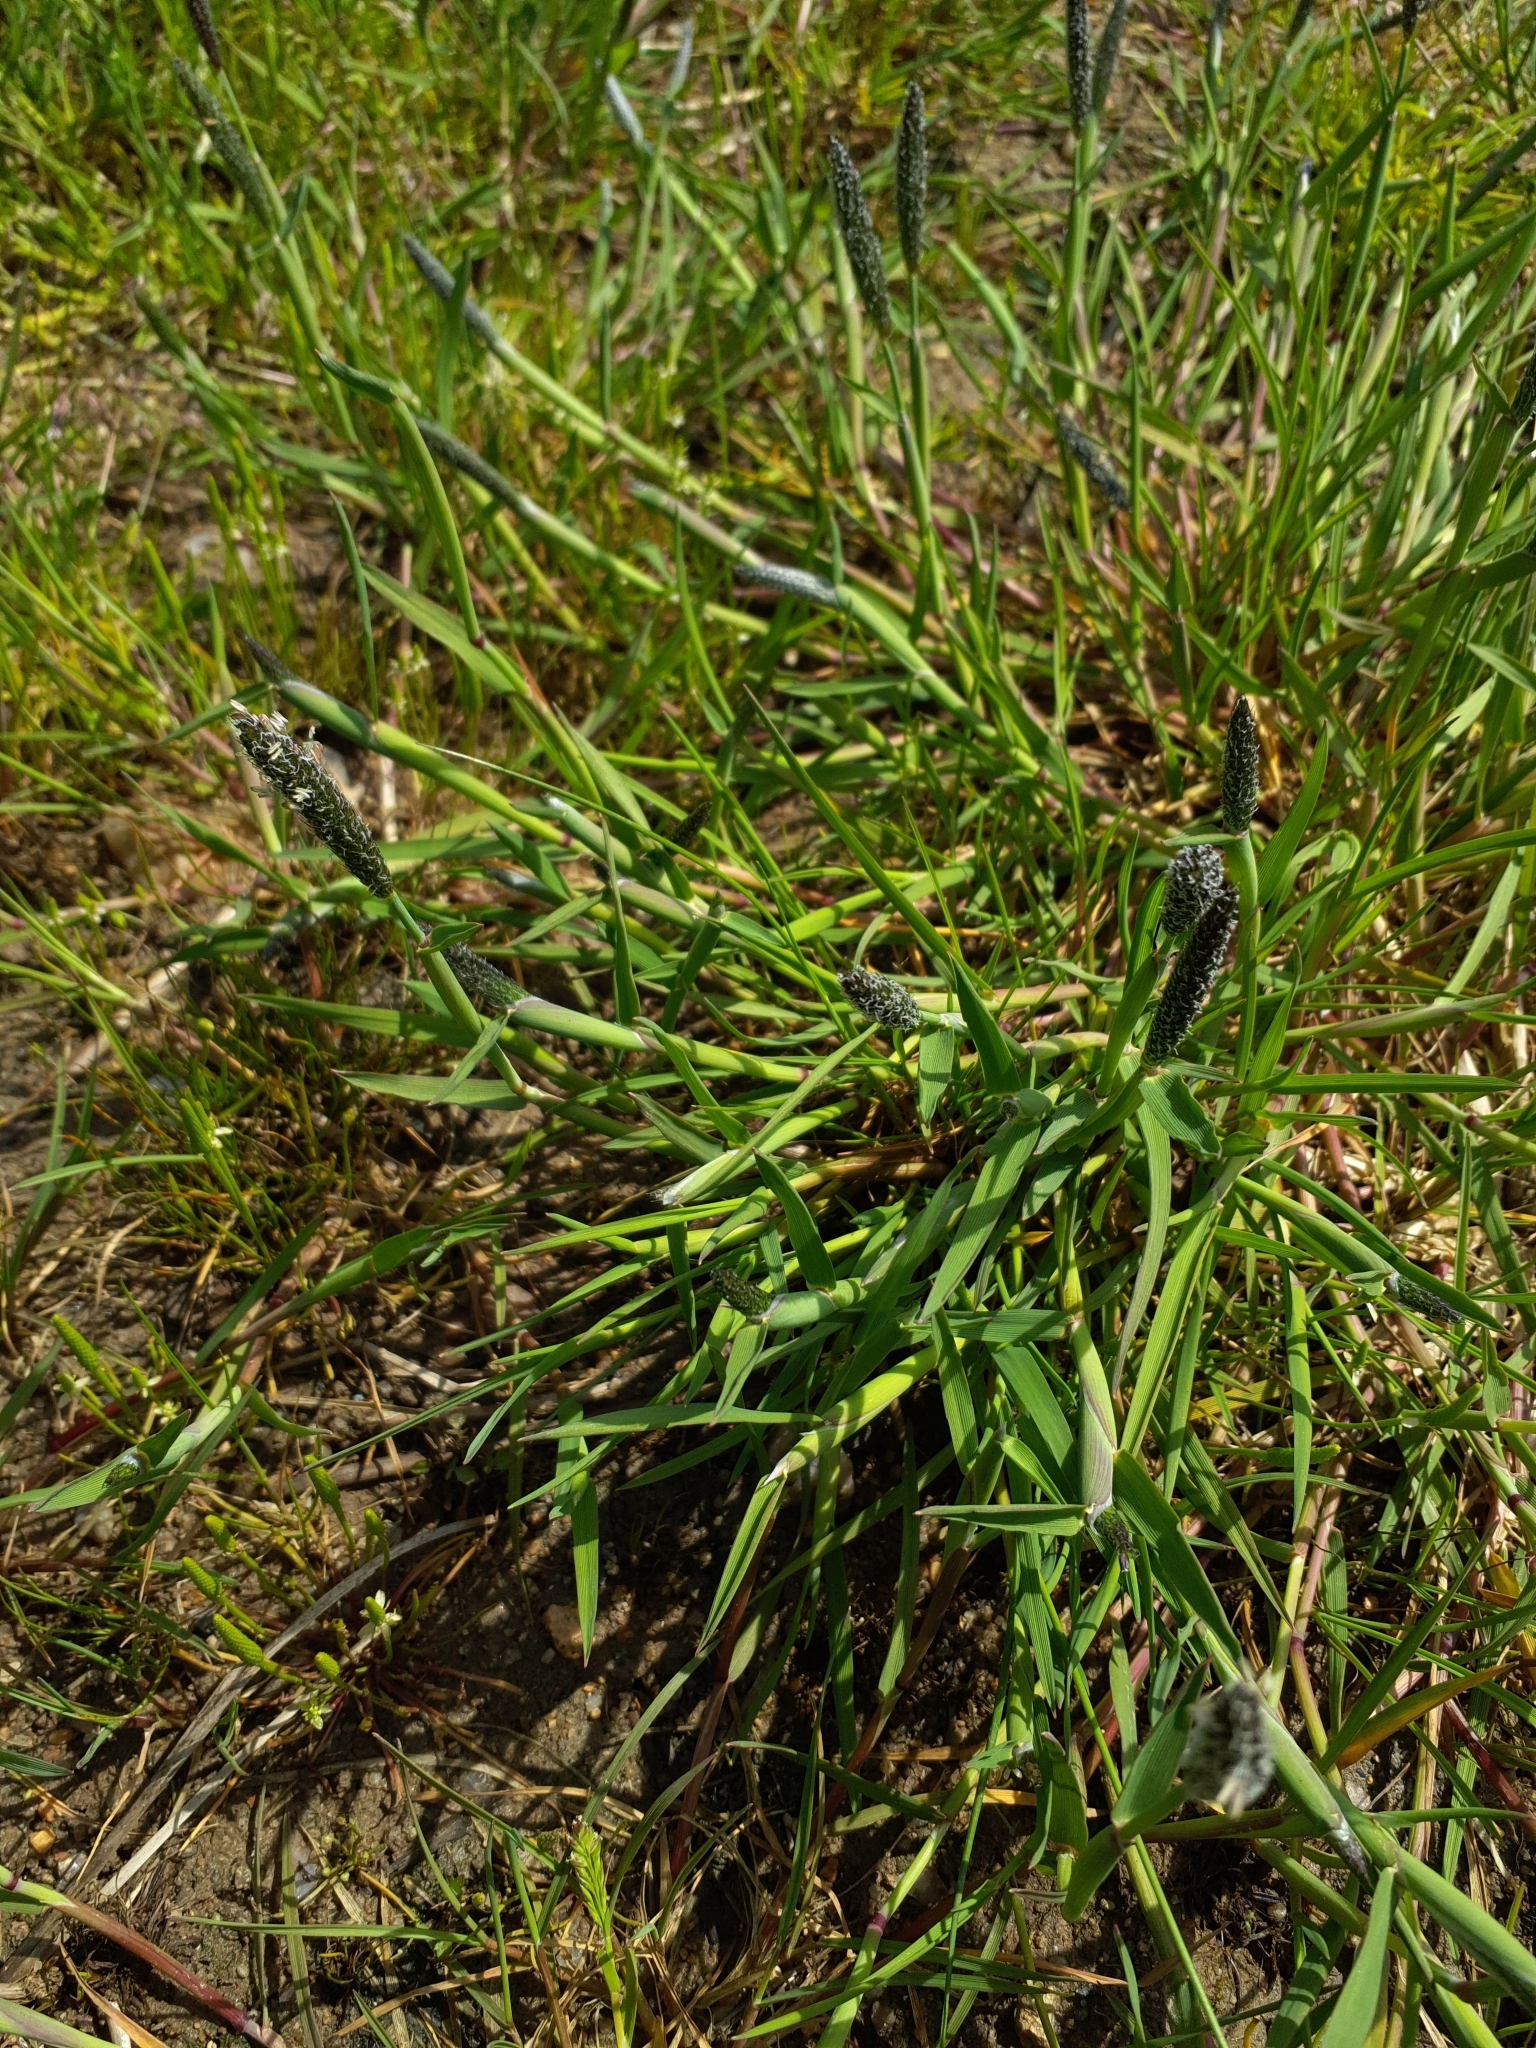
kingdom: Plantae
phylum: Tracheophyta
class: Liliopsida
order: Poales
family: Poaceae
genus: Alopecurus
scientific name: Alopecurus geniculatus
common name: Water foxtail
